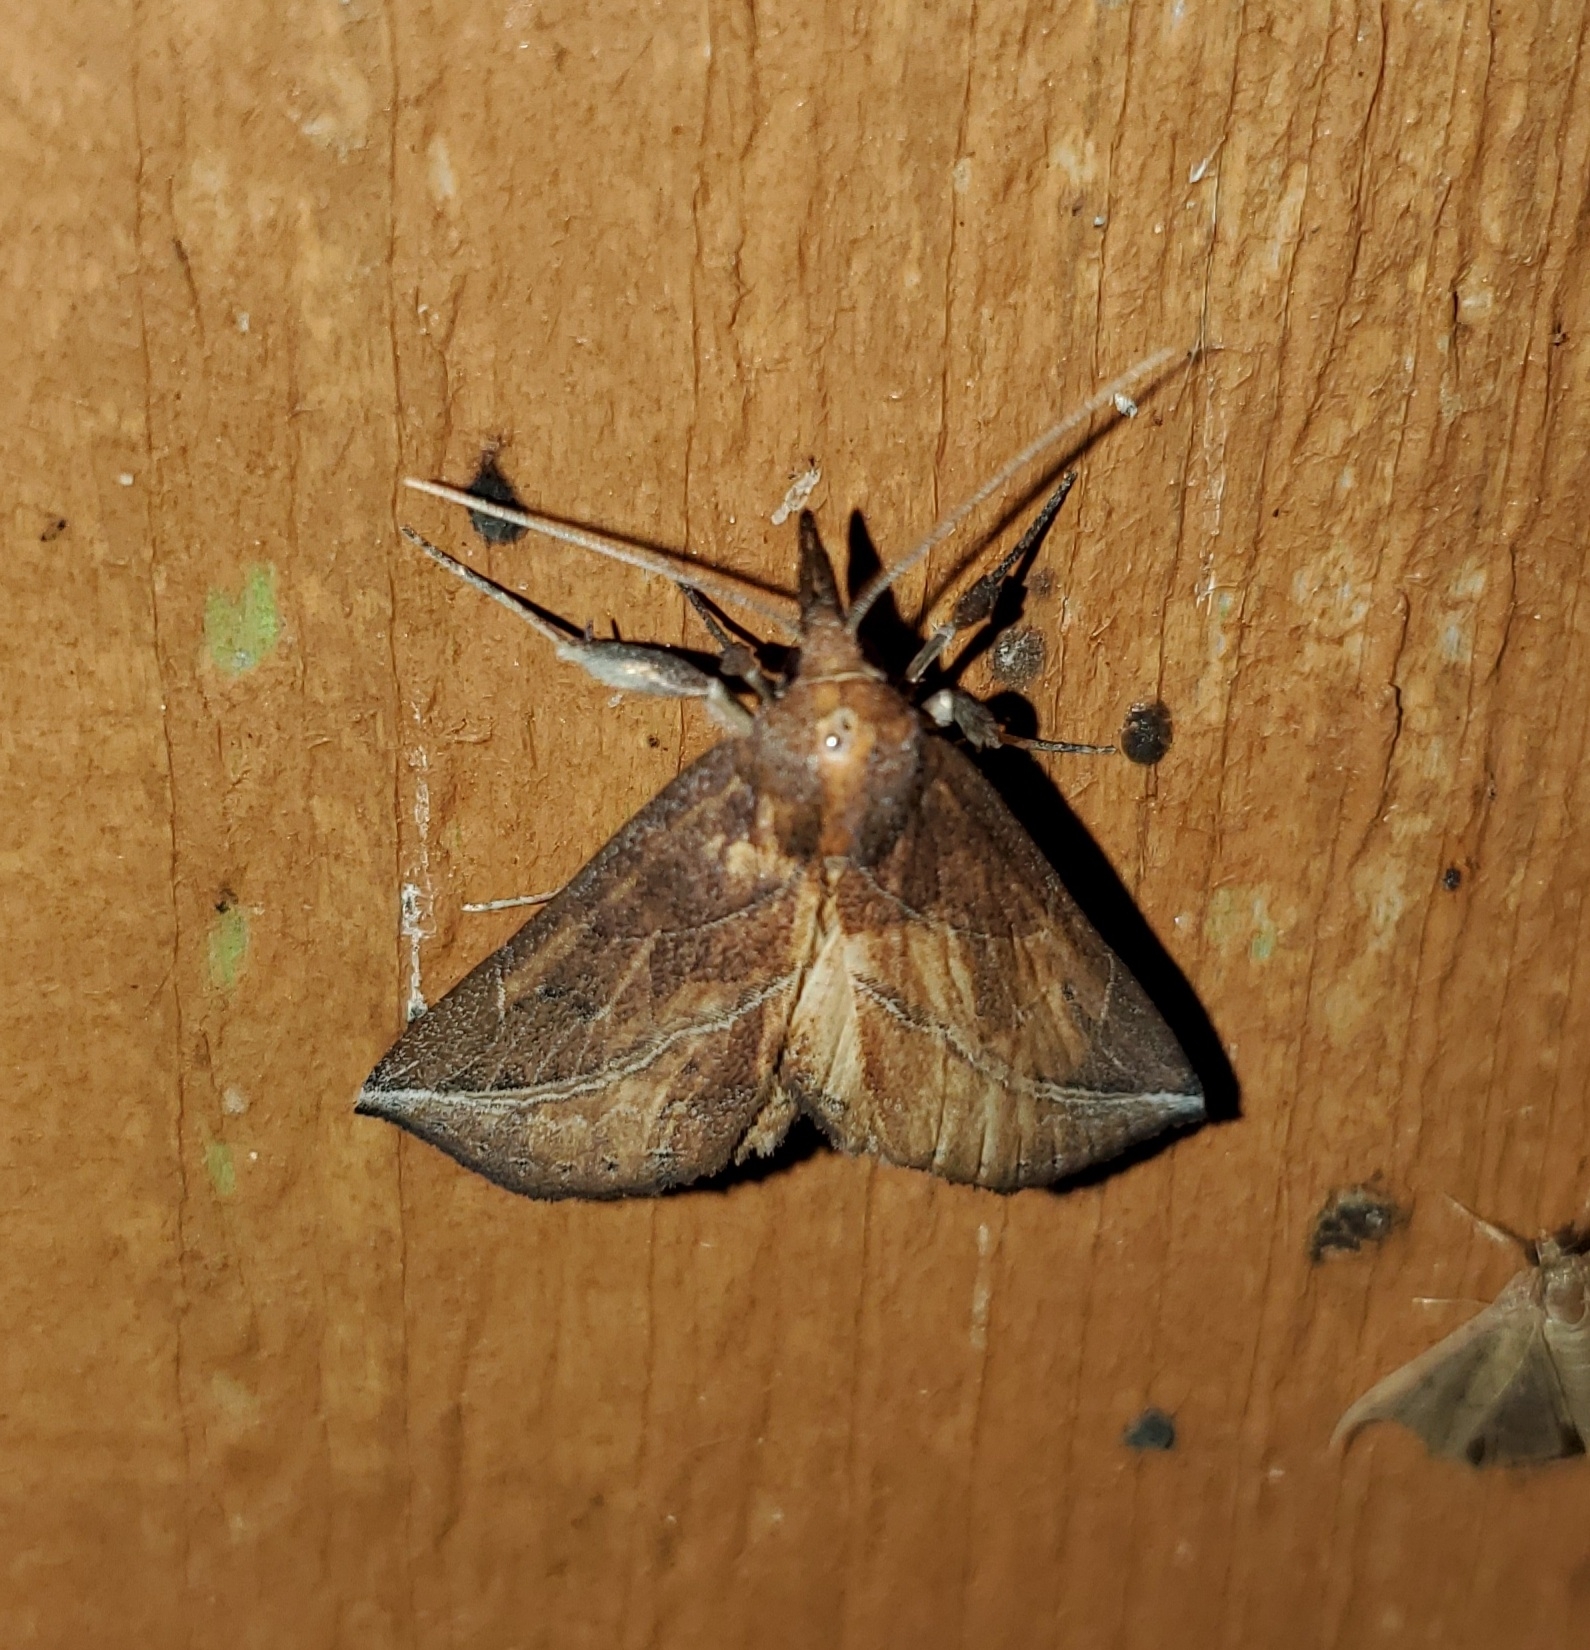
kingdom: Animalia
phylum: Arthropoda
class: Insecta
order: Lepidoptera
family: Erebidae
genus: Phyprosopus
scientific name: Phyprosopus callitrichoides
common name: Curved-lined owlet
